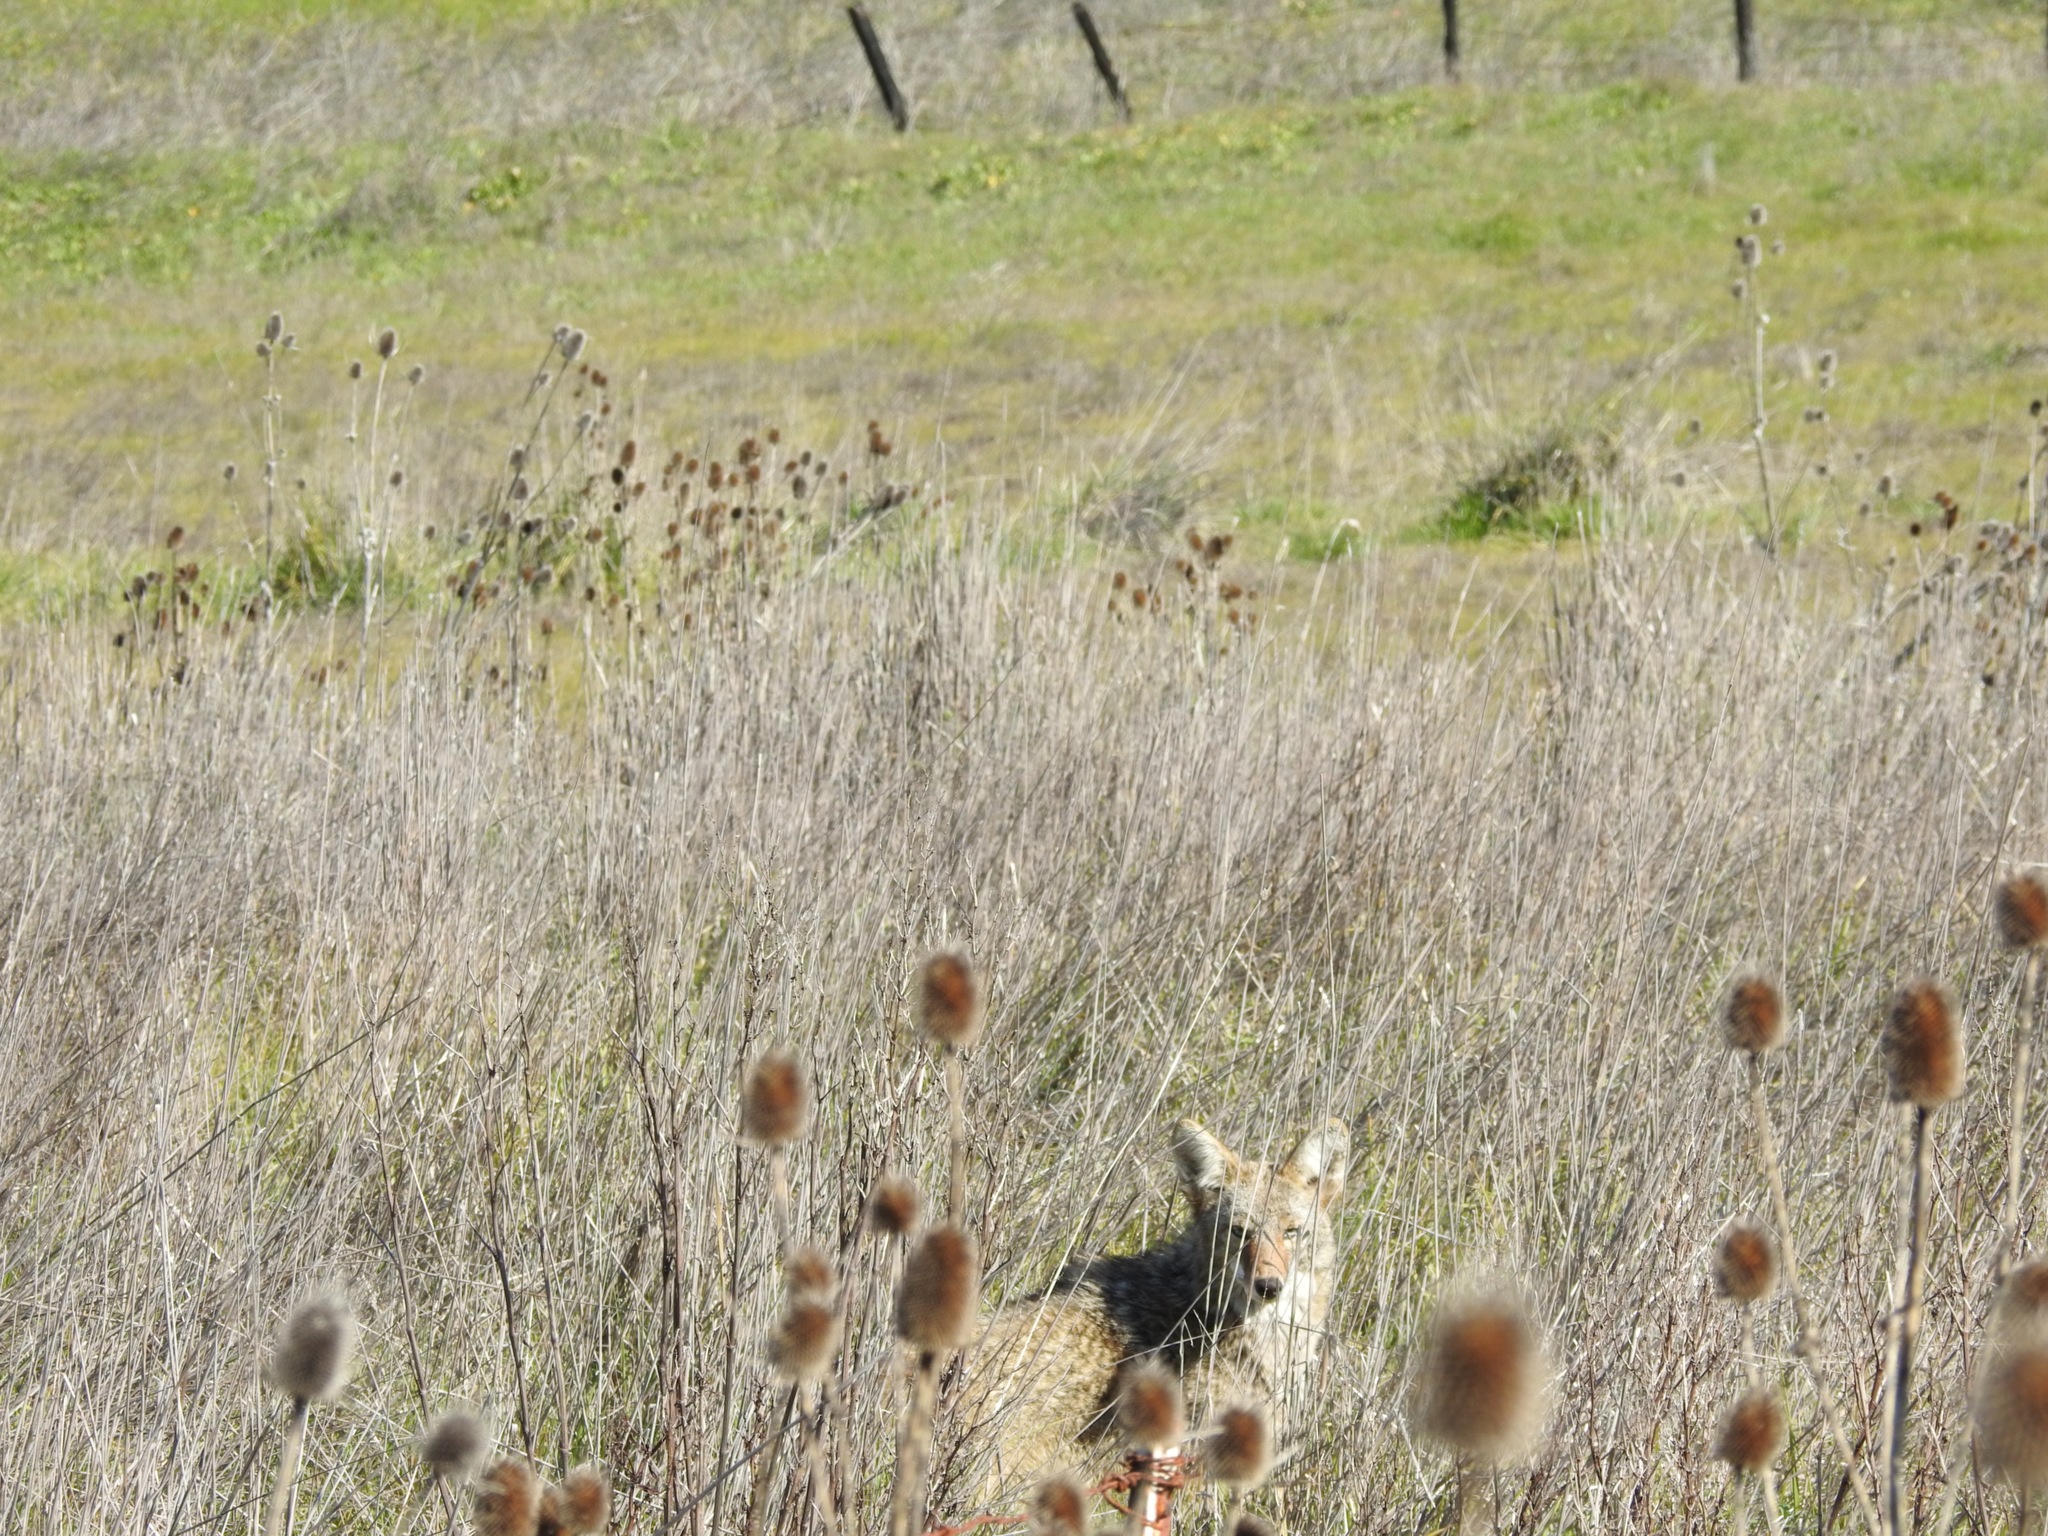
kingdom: Plantae
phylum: Tracheophyta
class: Magnoliopsida
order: Dipsacales
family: Caprifoliaceae
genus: Dipsacus
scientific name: Dipsacus sativus
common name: Fuller's teasel
